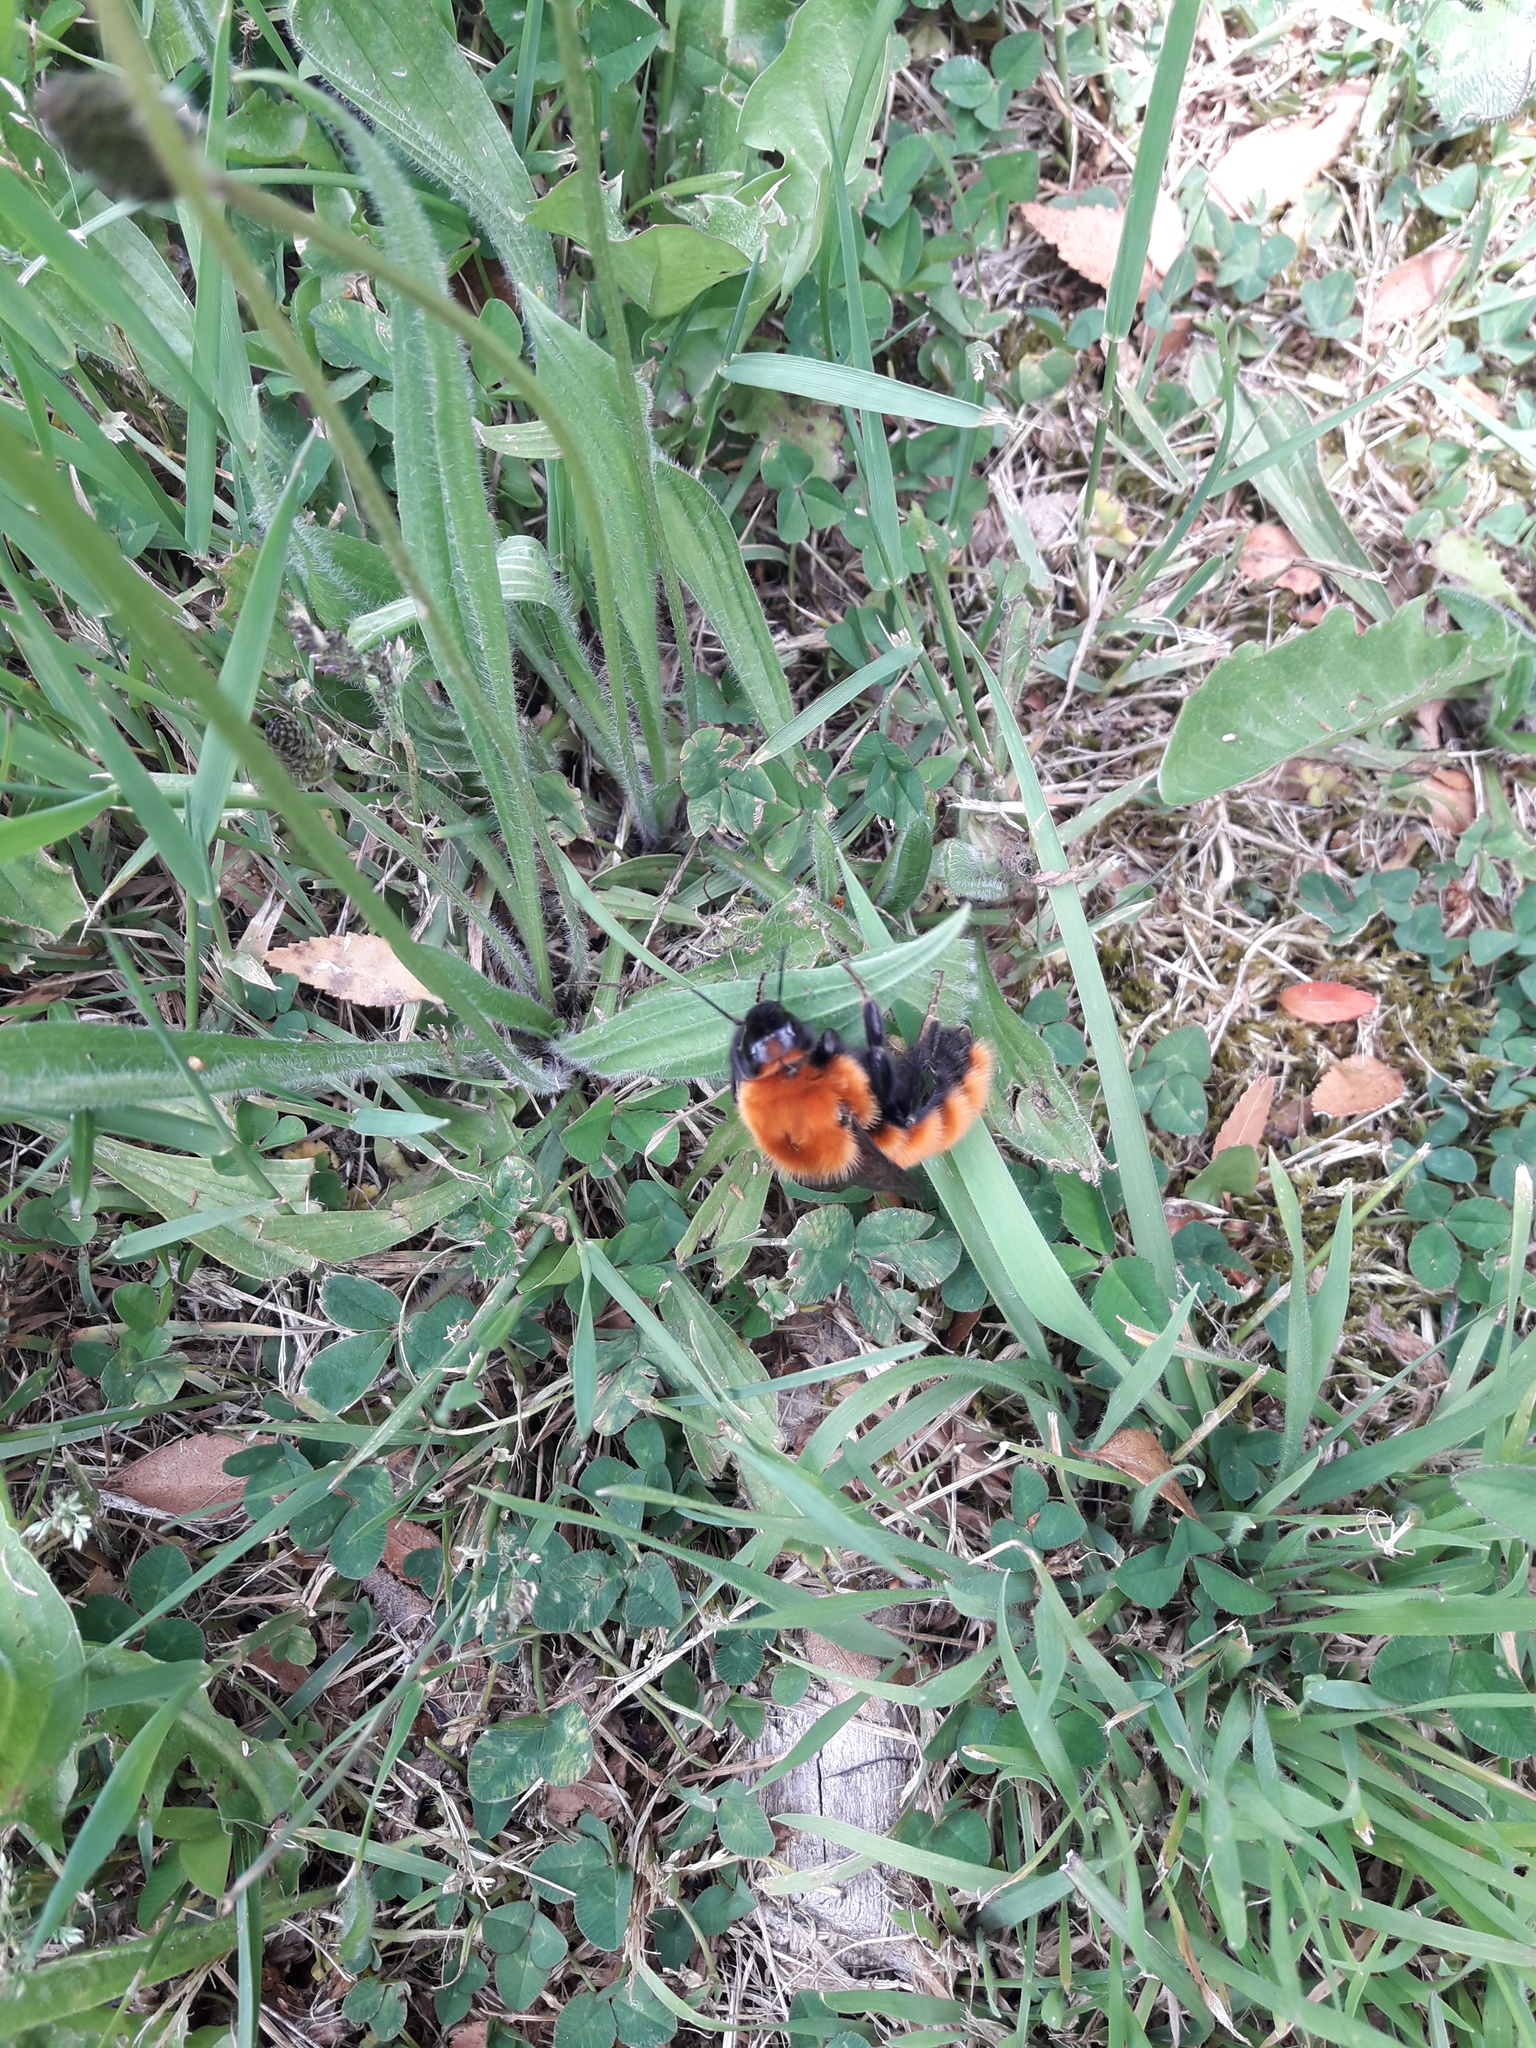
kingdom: Animalia
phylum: Arthropoda
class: Insecta
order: Hymenoptera
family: Apidae
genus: Bombus
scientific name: Bombus dahlbomii
